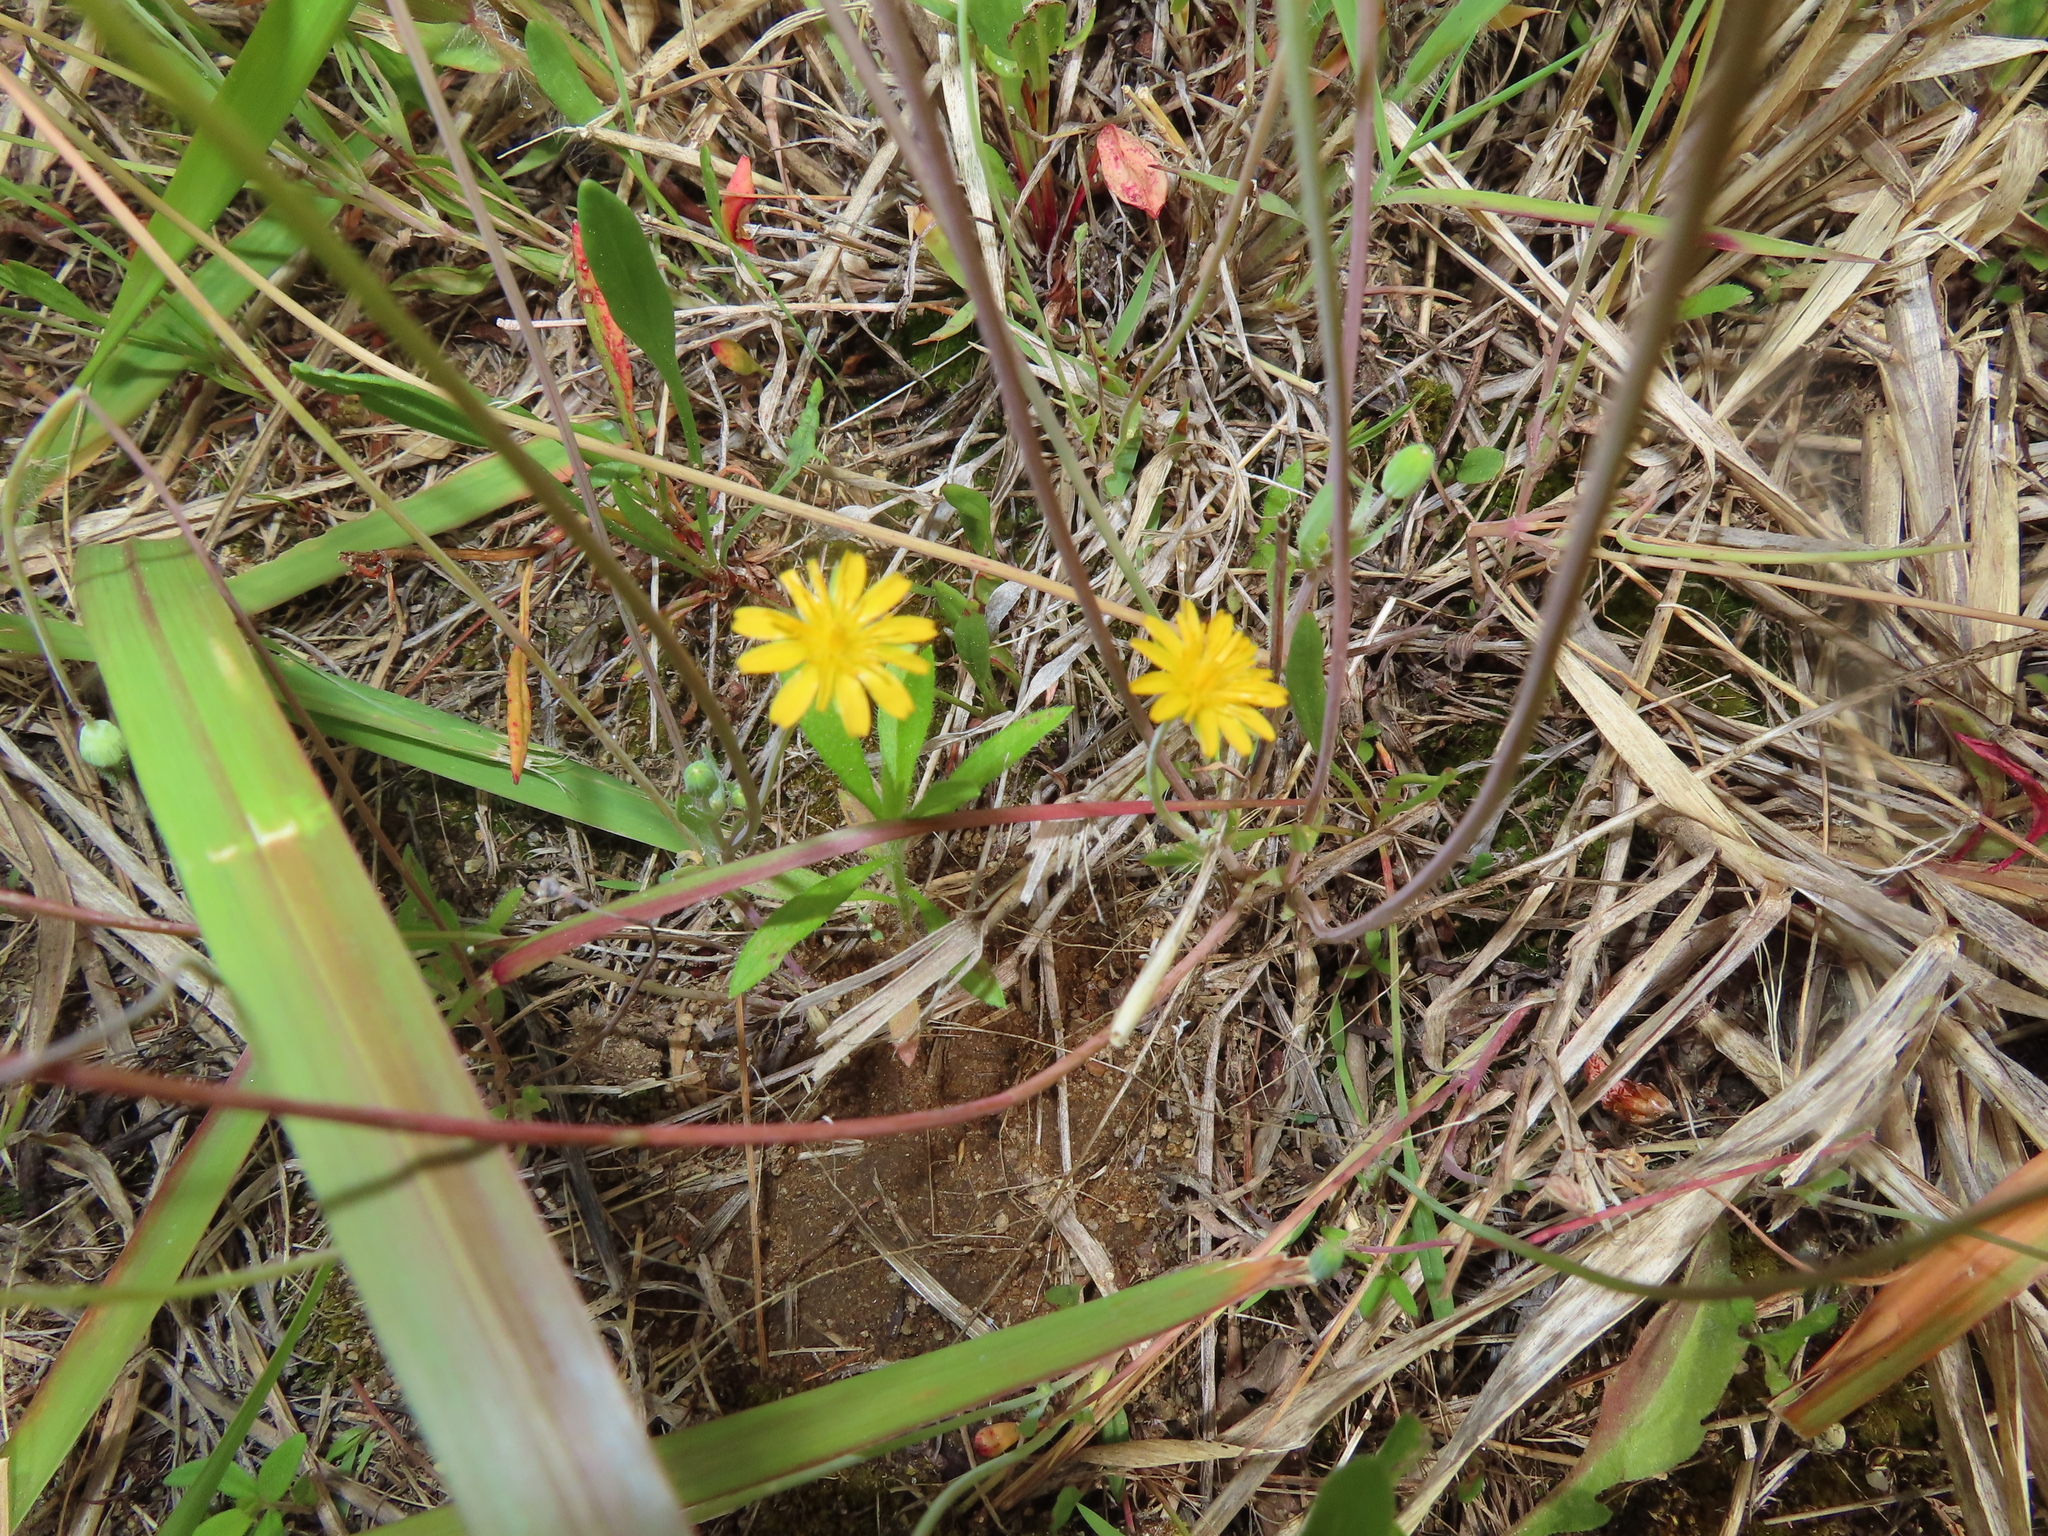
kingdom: Plantae
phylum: Tracheophyta
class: Magnoliopsida
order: Asterales
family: Asteraceae
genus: Krigia
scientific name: Krigia virginica
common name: Virginia dwarf-dandelion
